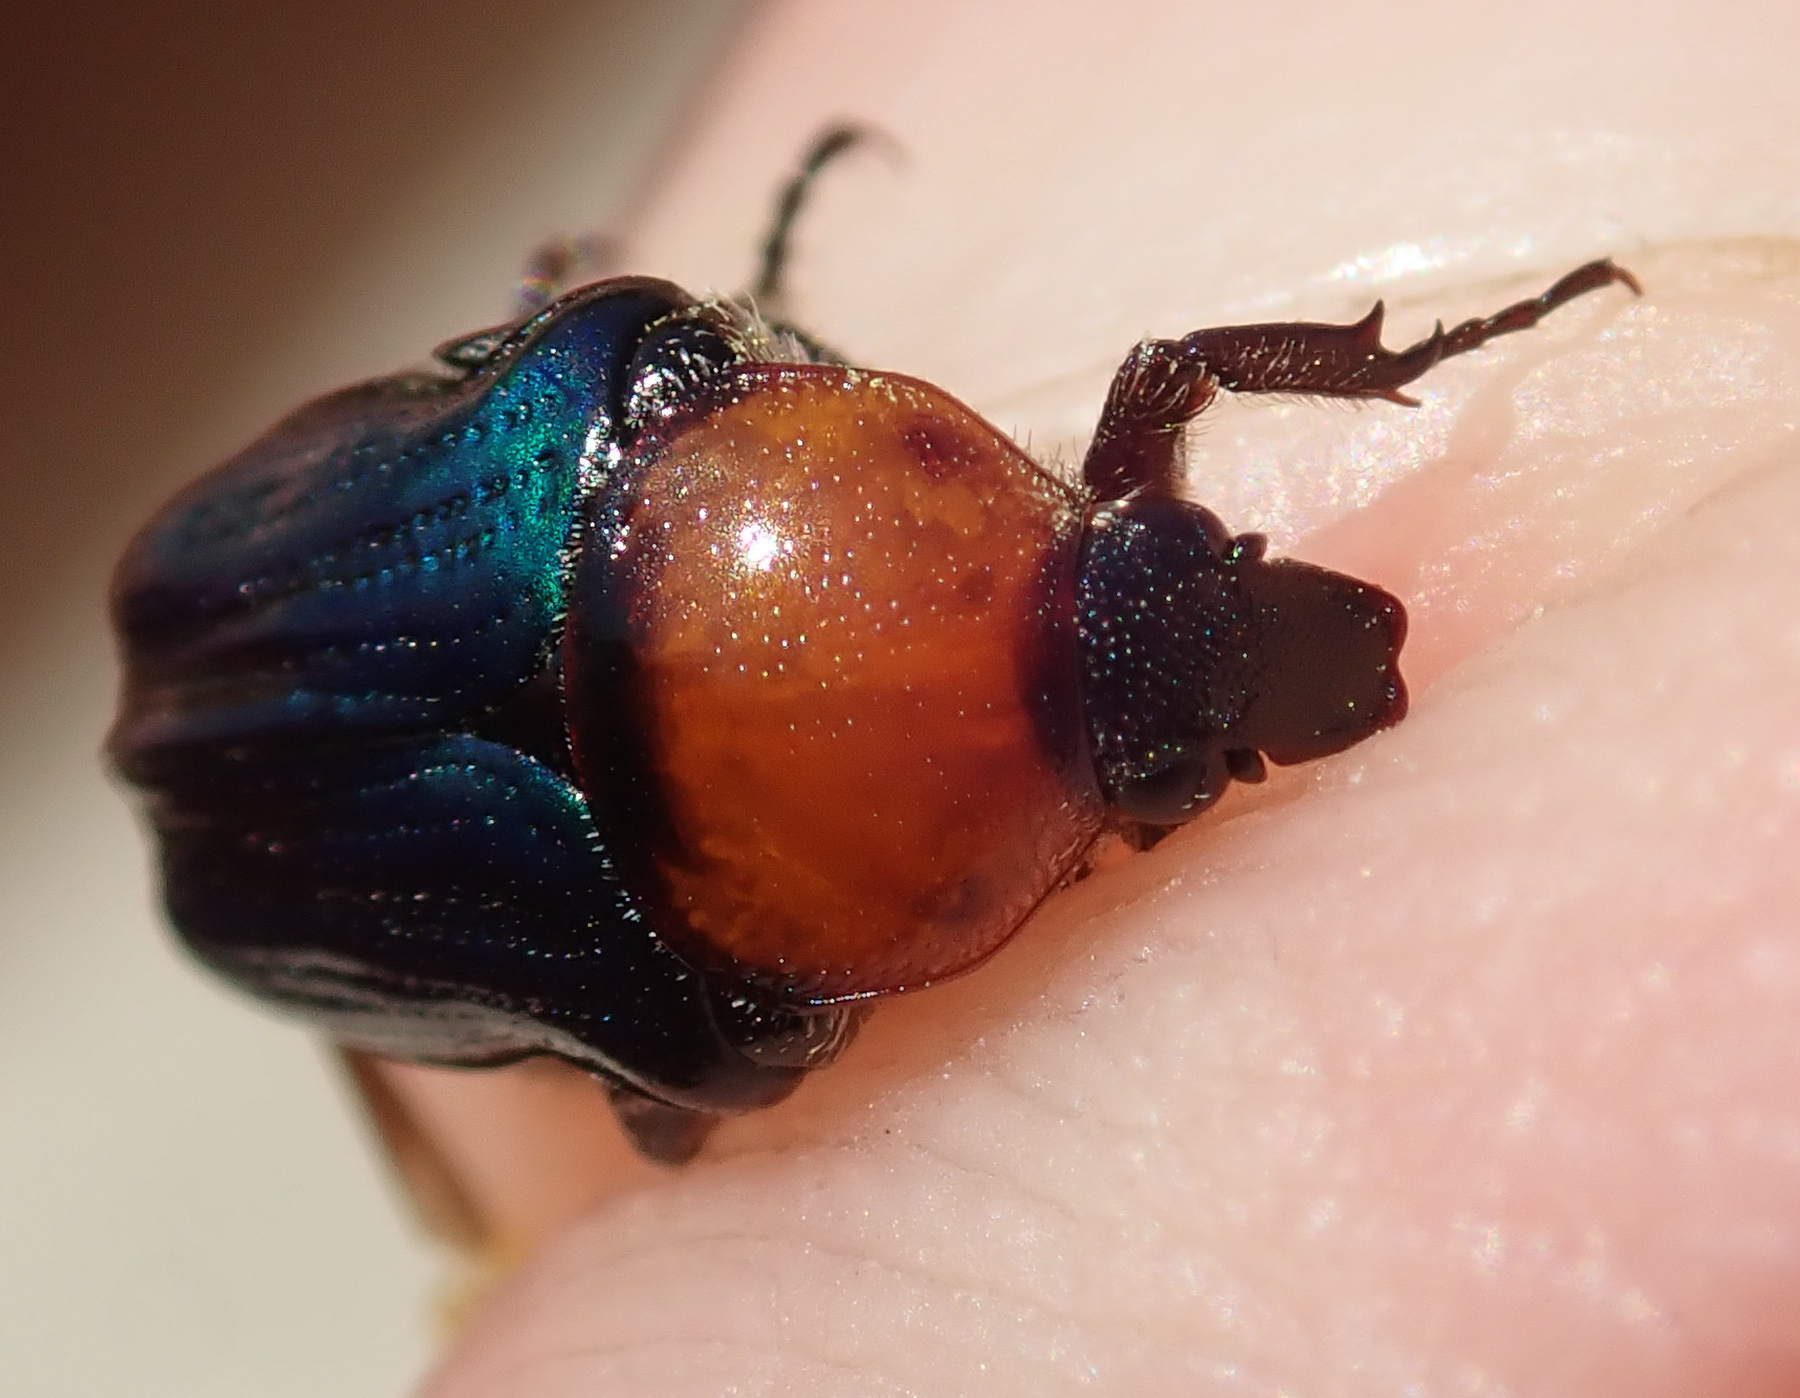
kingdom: Animalia
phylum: Arthropoda
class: Insecta
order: Coleoptera
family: Scarabaeidae
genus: Leucocelis
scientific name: Leucocelis amethystina
